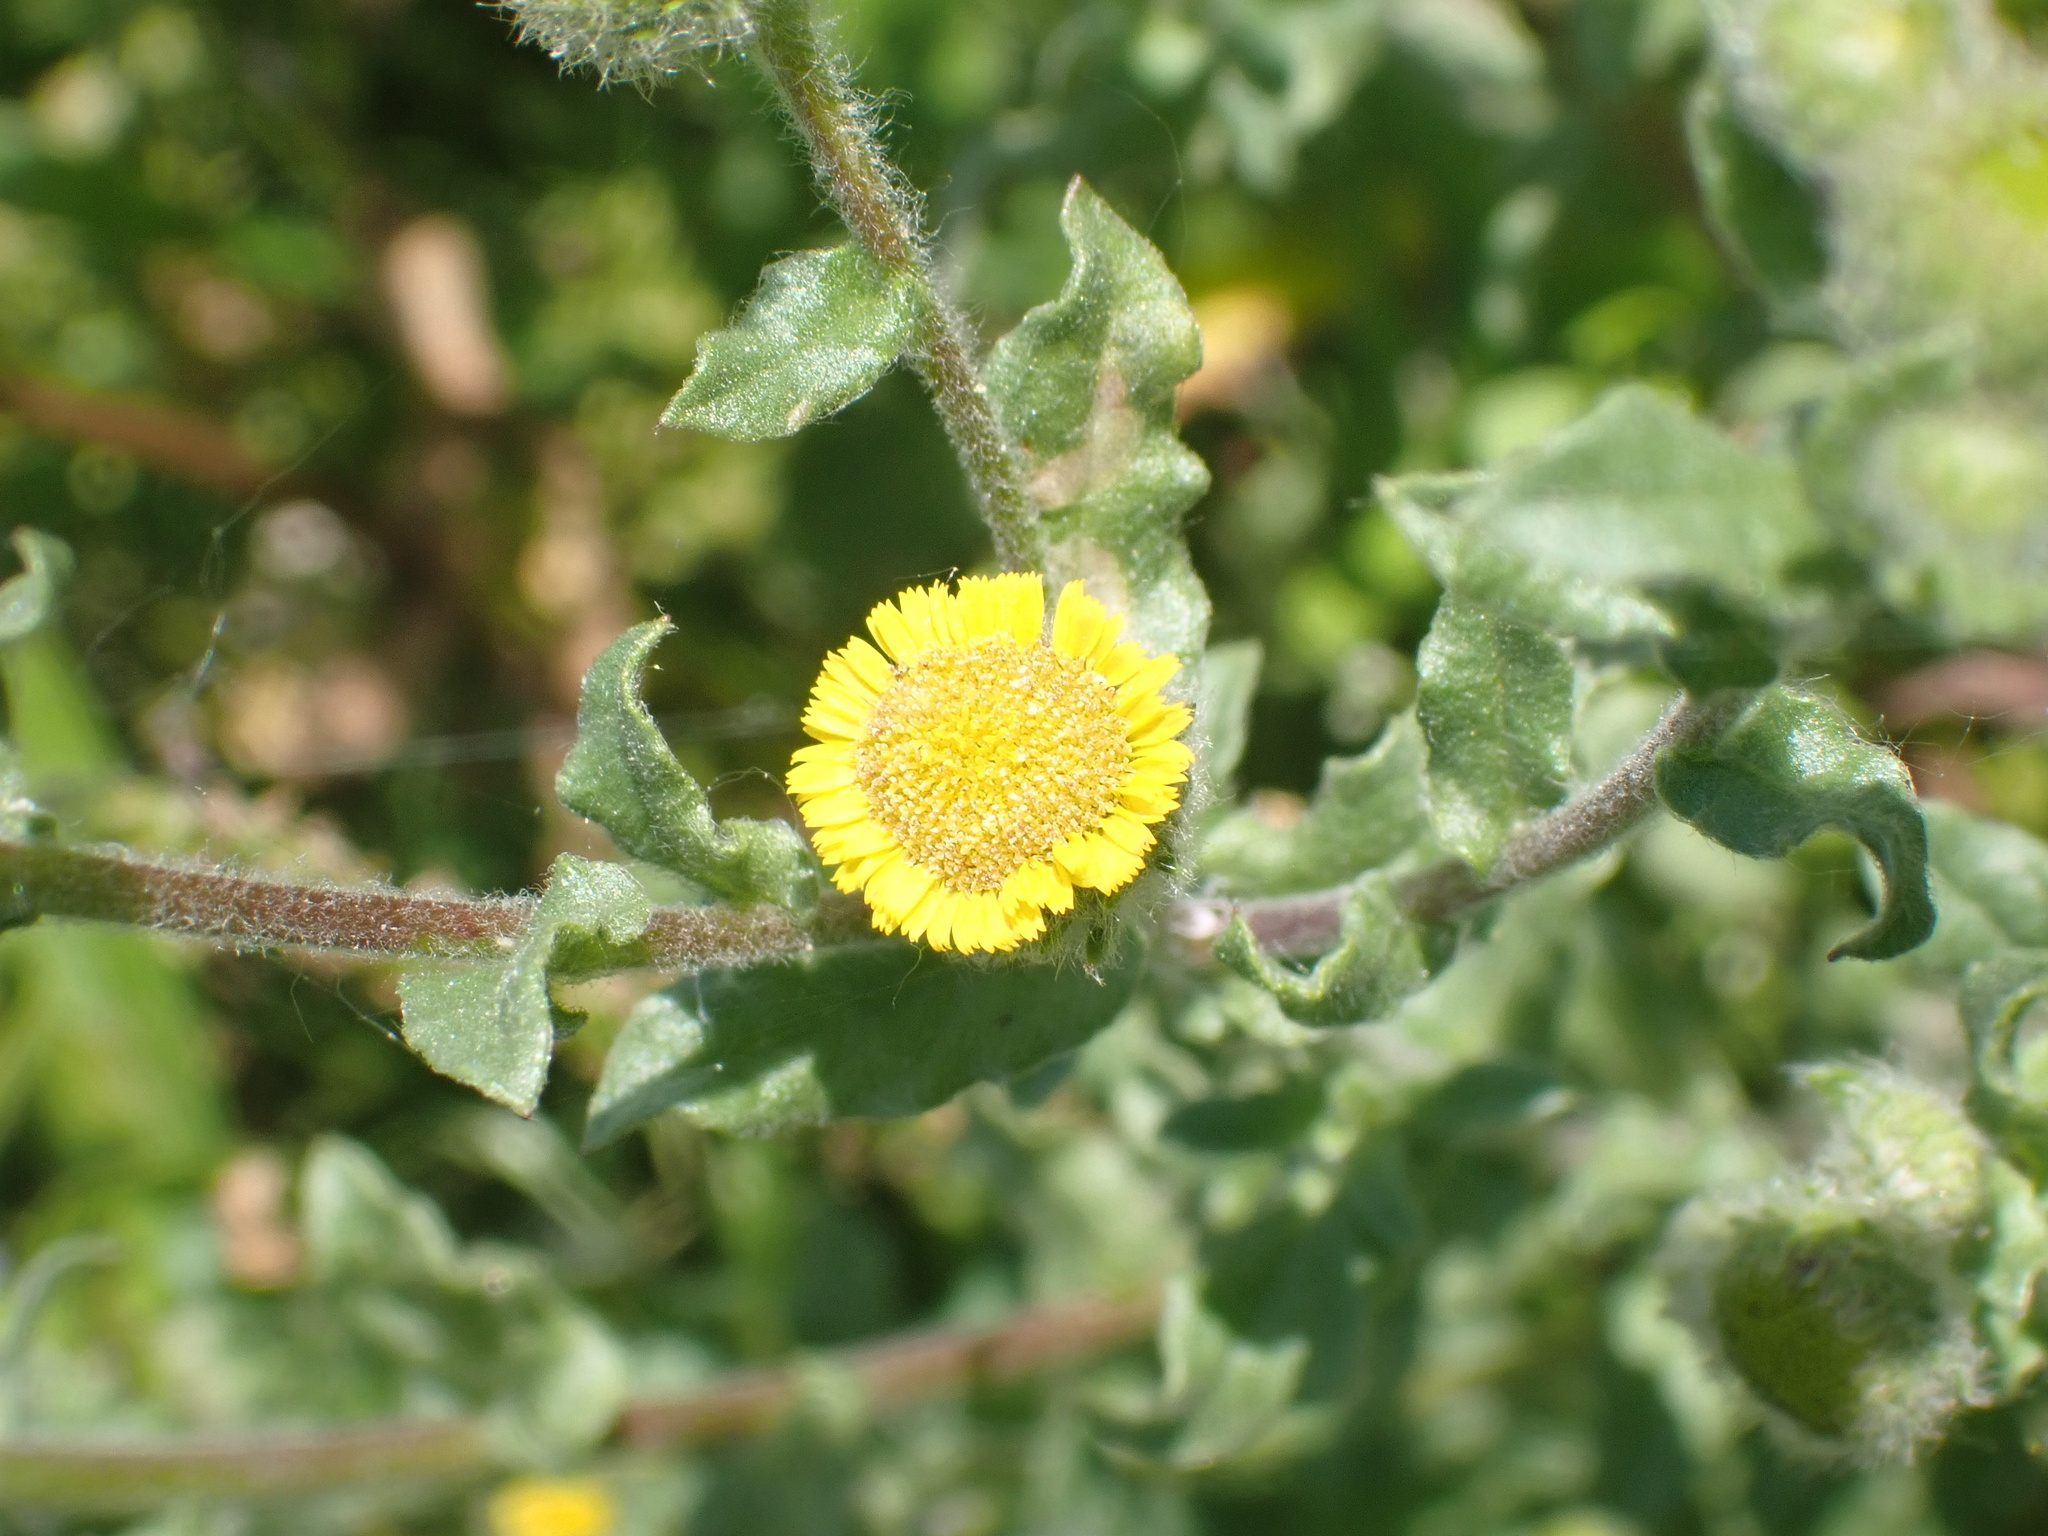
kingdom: Plantae
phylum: Tracheophyta
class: Magnoliopsida
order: Asterales
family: Asteraceae
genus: Pulicaria
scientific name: Pulicaria vulgaris
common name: Small fleabane
